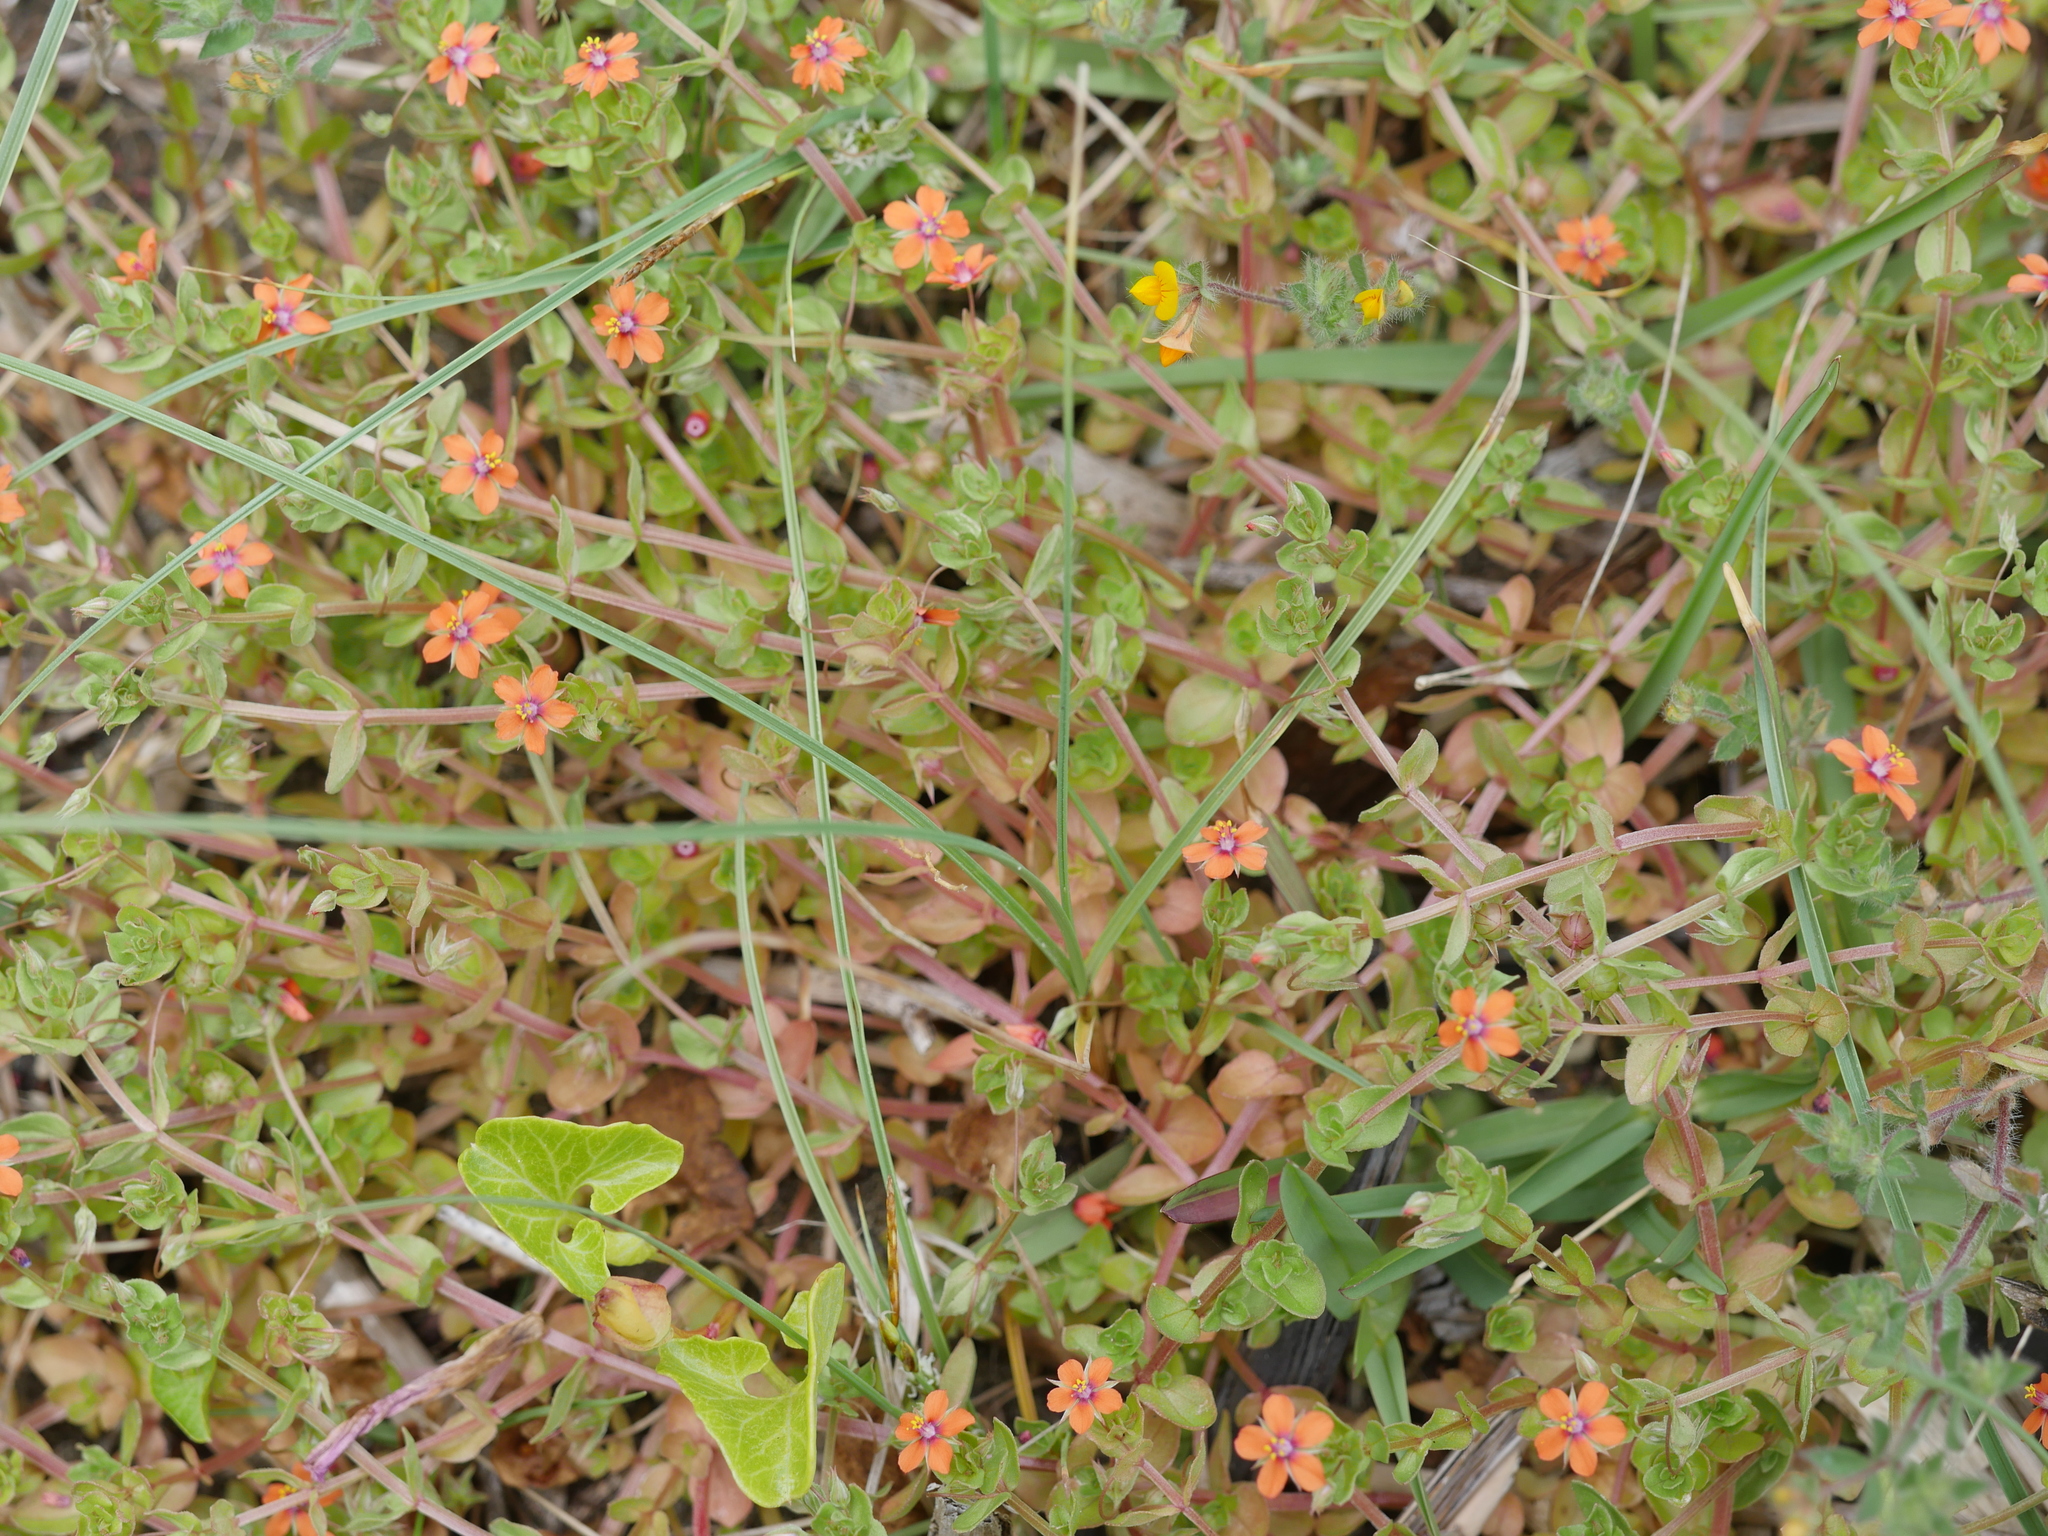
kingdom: Plantae
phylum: Tracheophyta
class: Magnoliopsida
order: Ericales
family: Primulaceae
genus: Lysimachia
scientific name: Lysimachia arvensis
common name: Scarlet pimpernel
